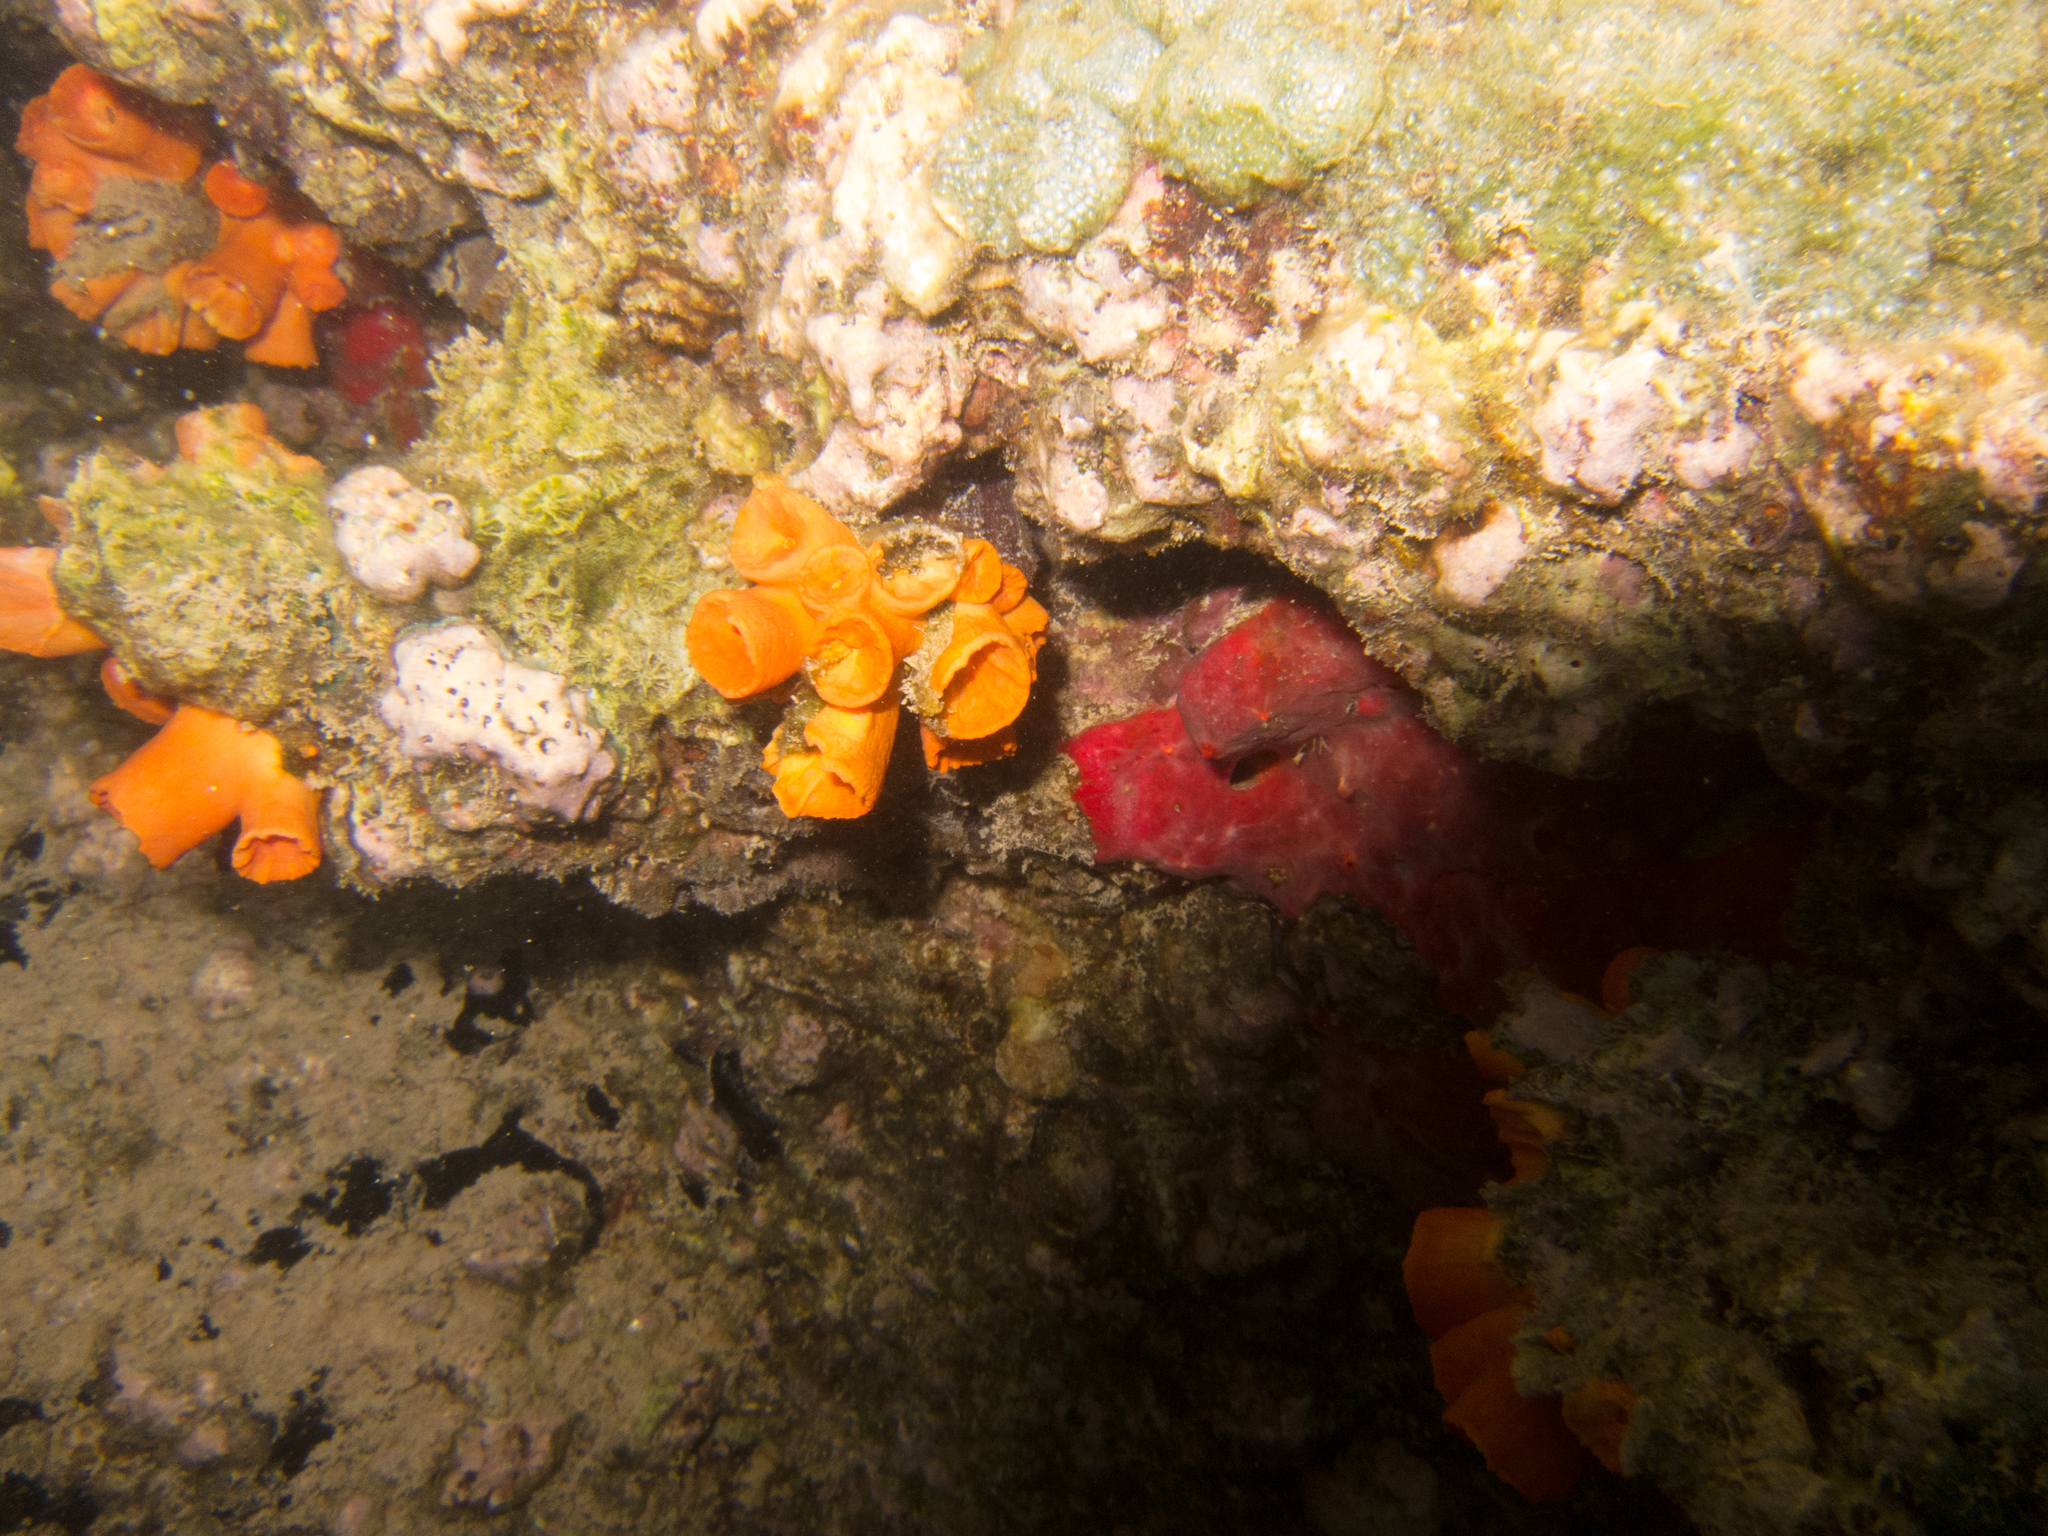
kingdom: Animalia
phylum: Cnidaria
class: Anthozoa
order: Scleractinia
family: Dendrophylliidae
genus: Tubastraea
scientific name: Tubastraea coccinea
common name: Orange cup coral
